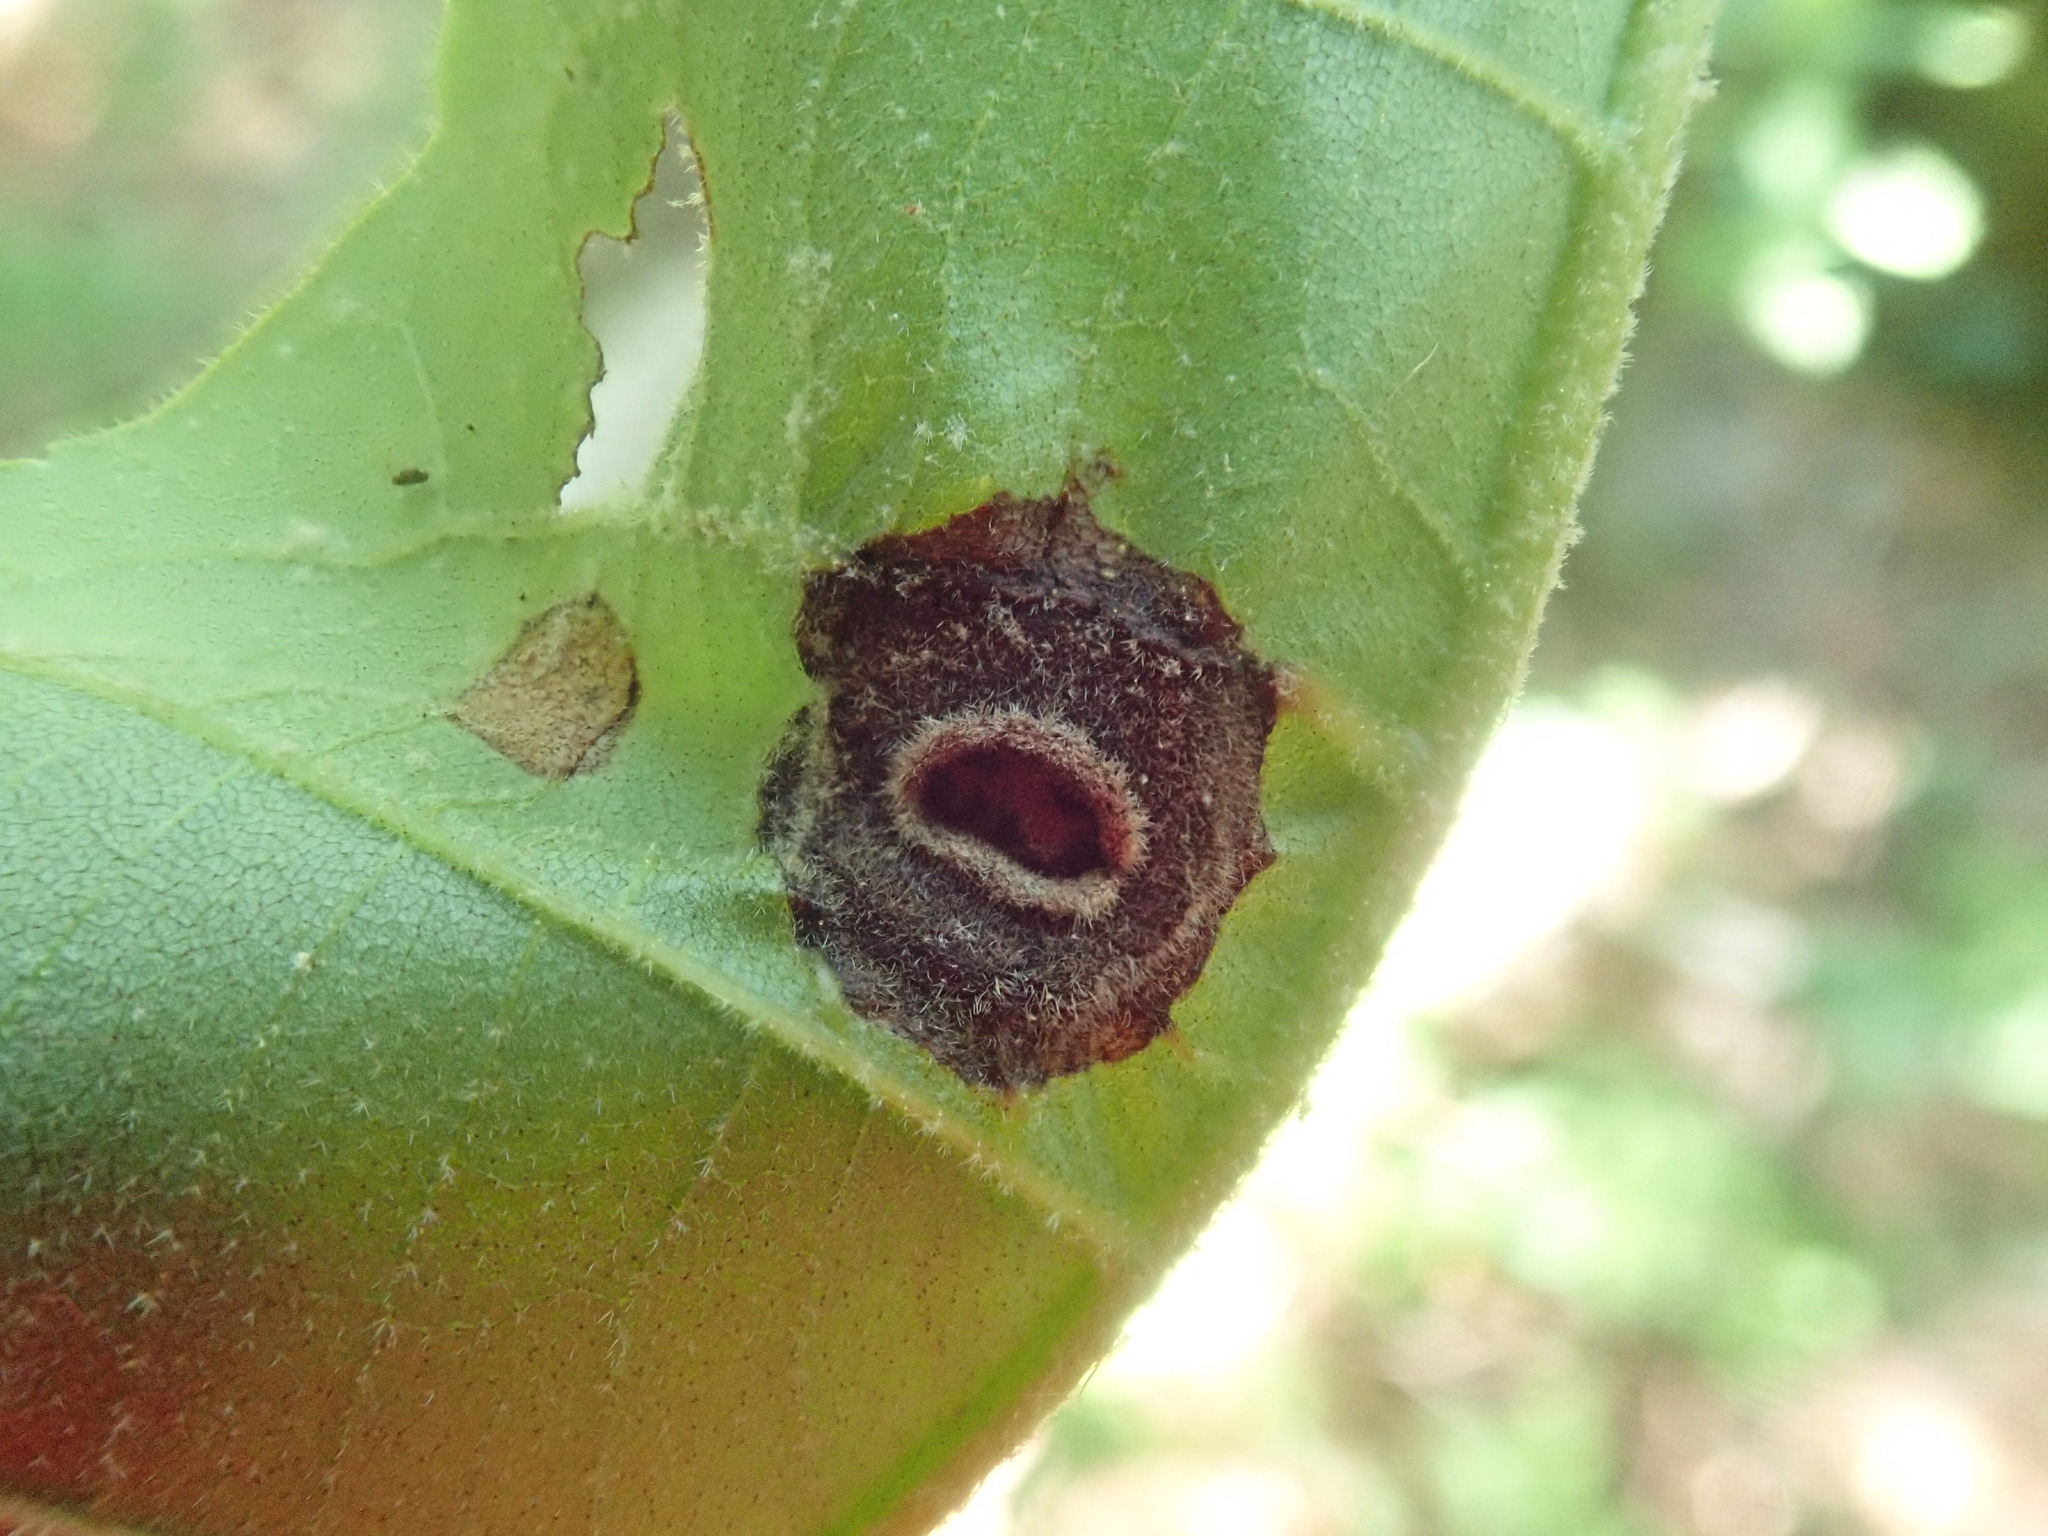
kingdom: Animalia
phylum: Arthropoda
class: Insecta
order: Hemiptera
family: Phylloxeridae
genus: Phylloxera
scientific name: Phylloxera caryae-globuli
